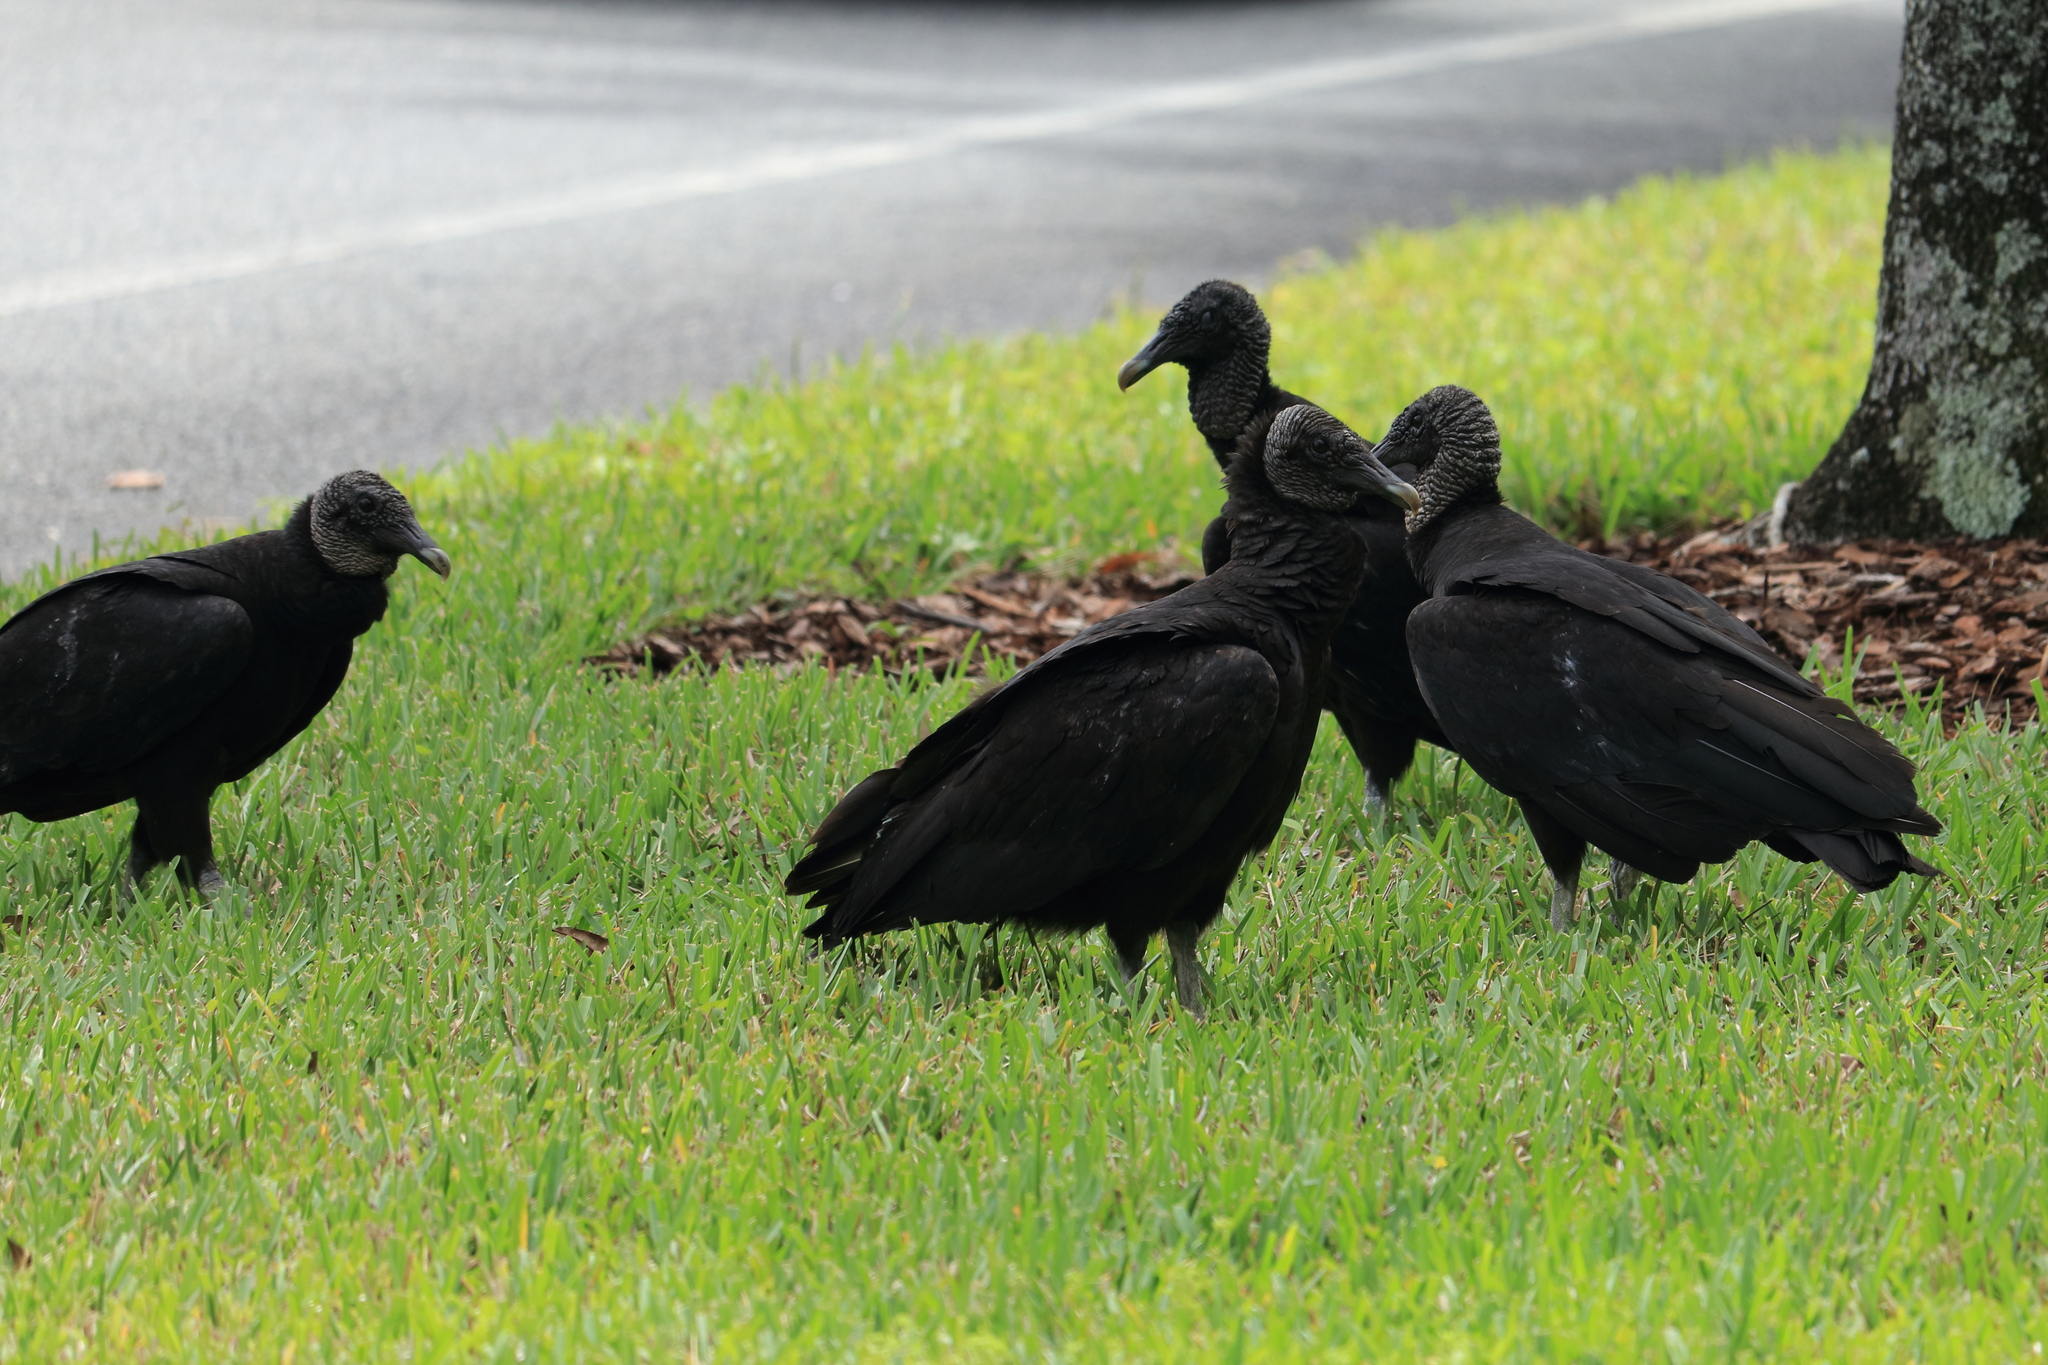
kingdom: Animalia
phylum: Chordata
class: Aves
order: Accipitriformes
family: Cathartidae
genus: Coragyps
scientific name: Coragyps atratus
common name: Black vulture
